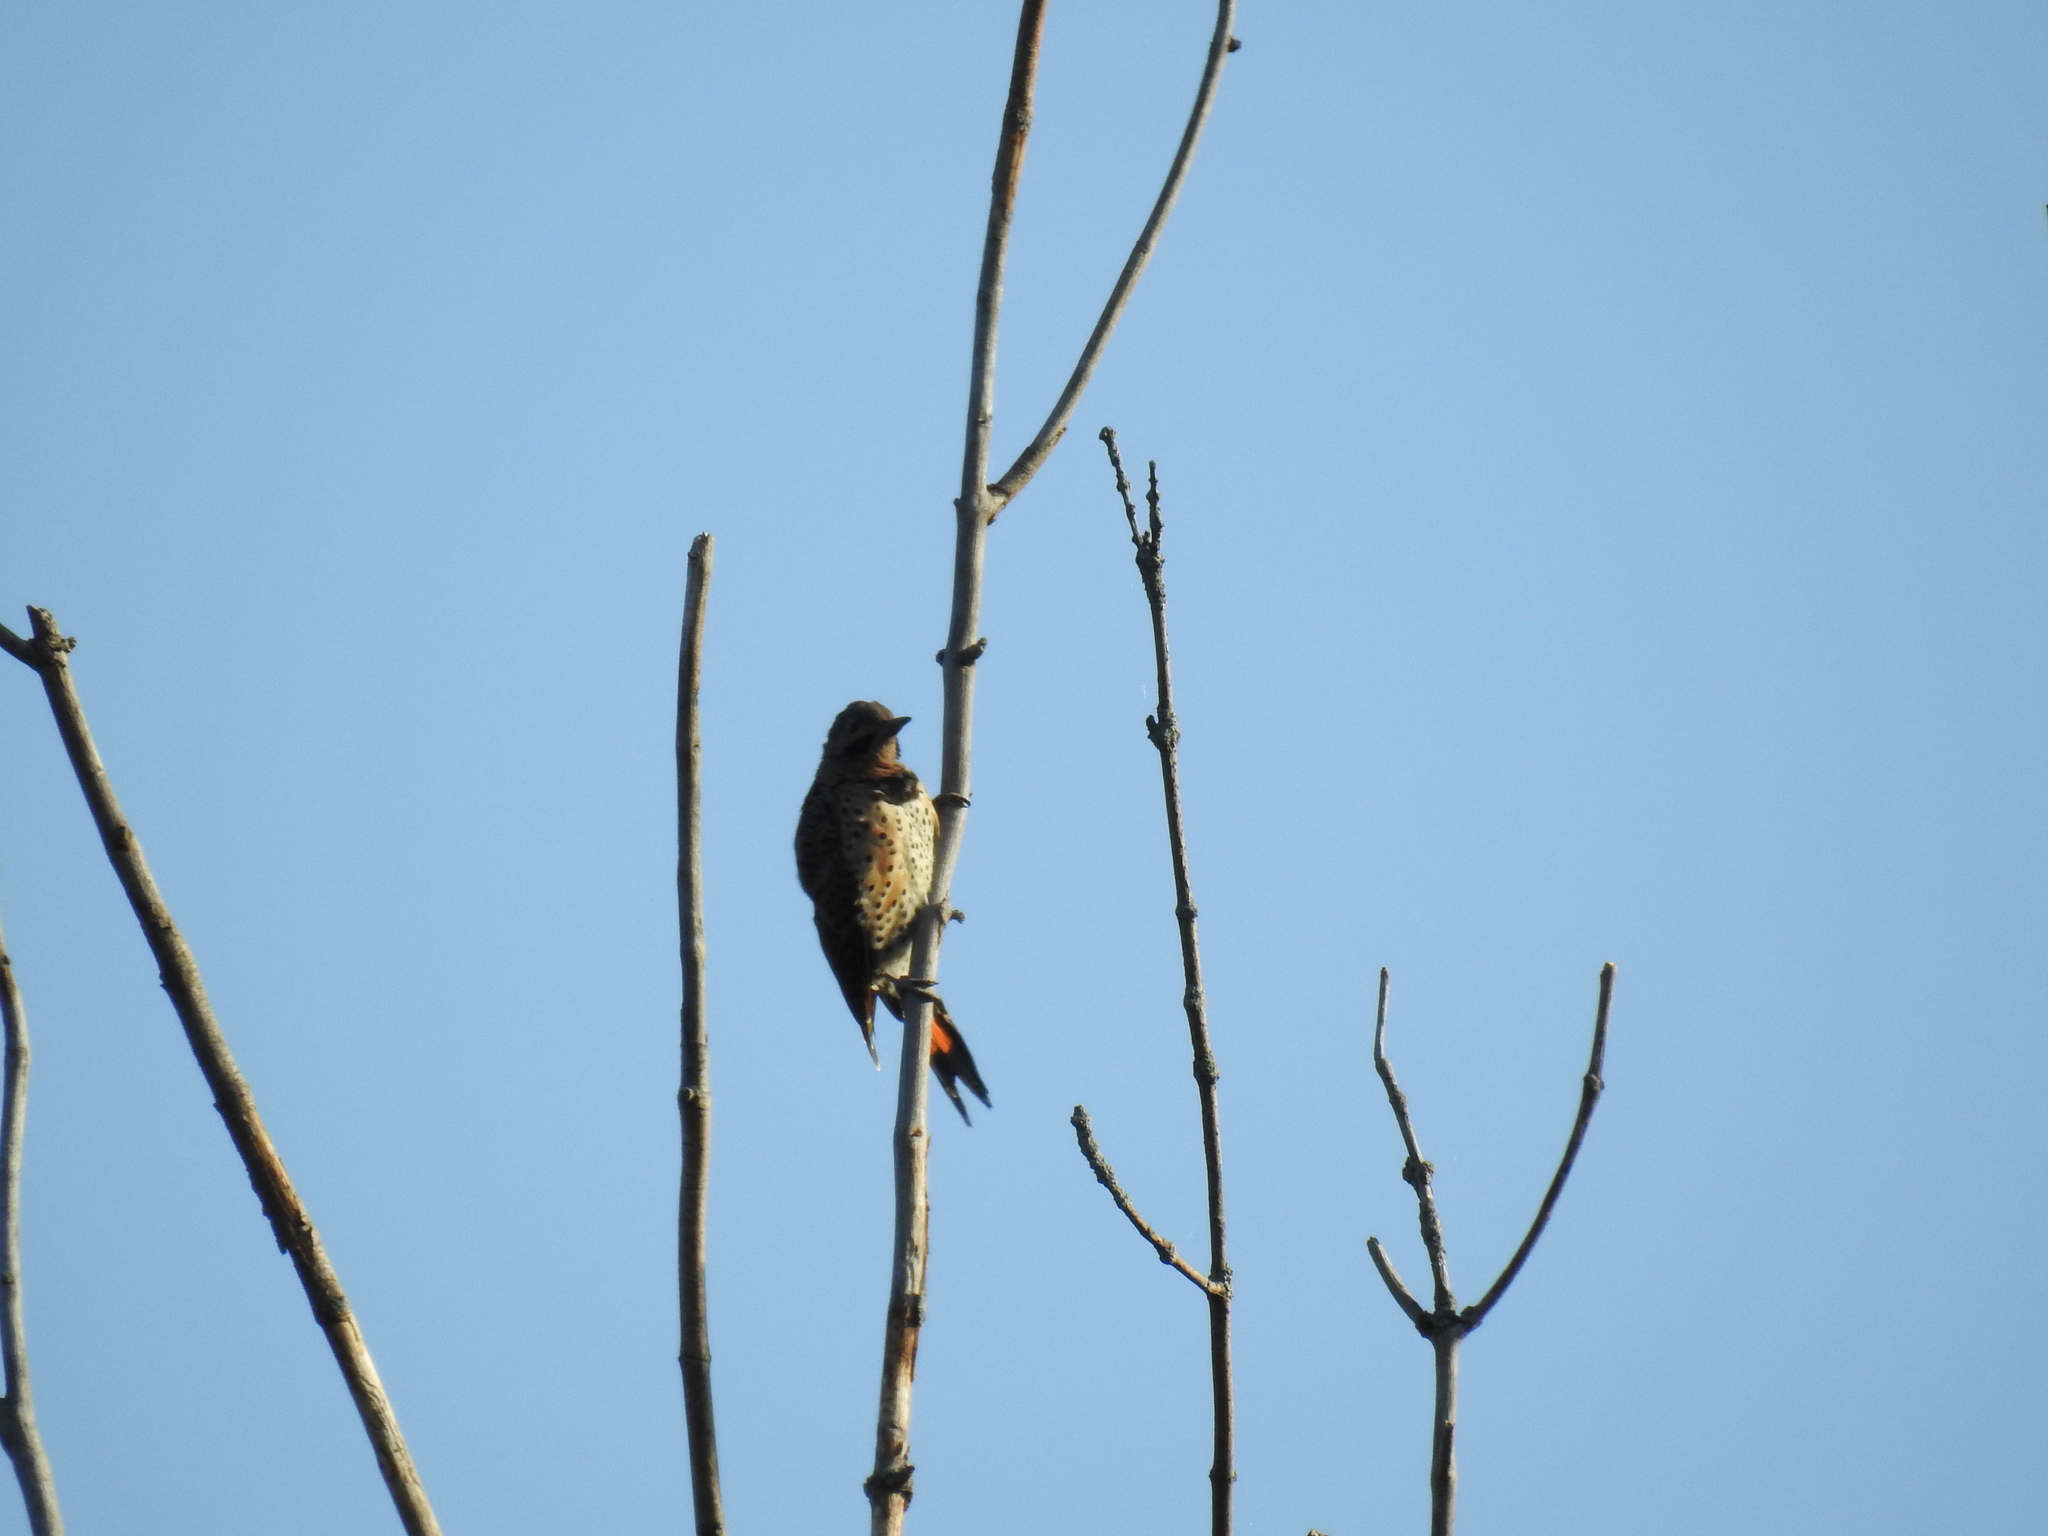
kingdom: Animalia
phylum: Chordata
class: Aves
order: Piciformes
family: Picidae
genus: Colaptes
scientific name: Colaptes auratus
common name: Northern flicker
